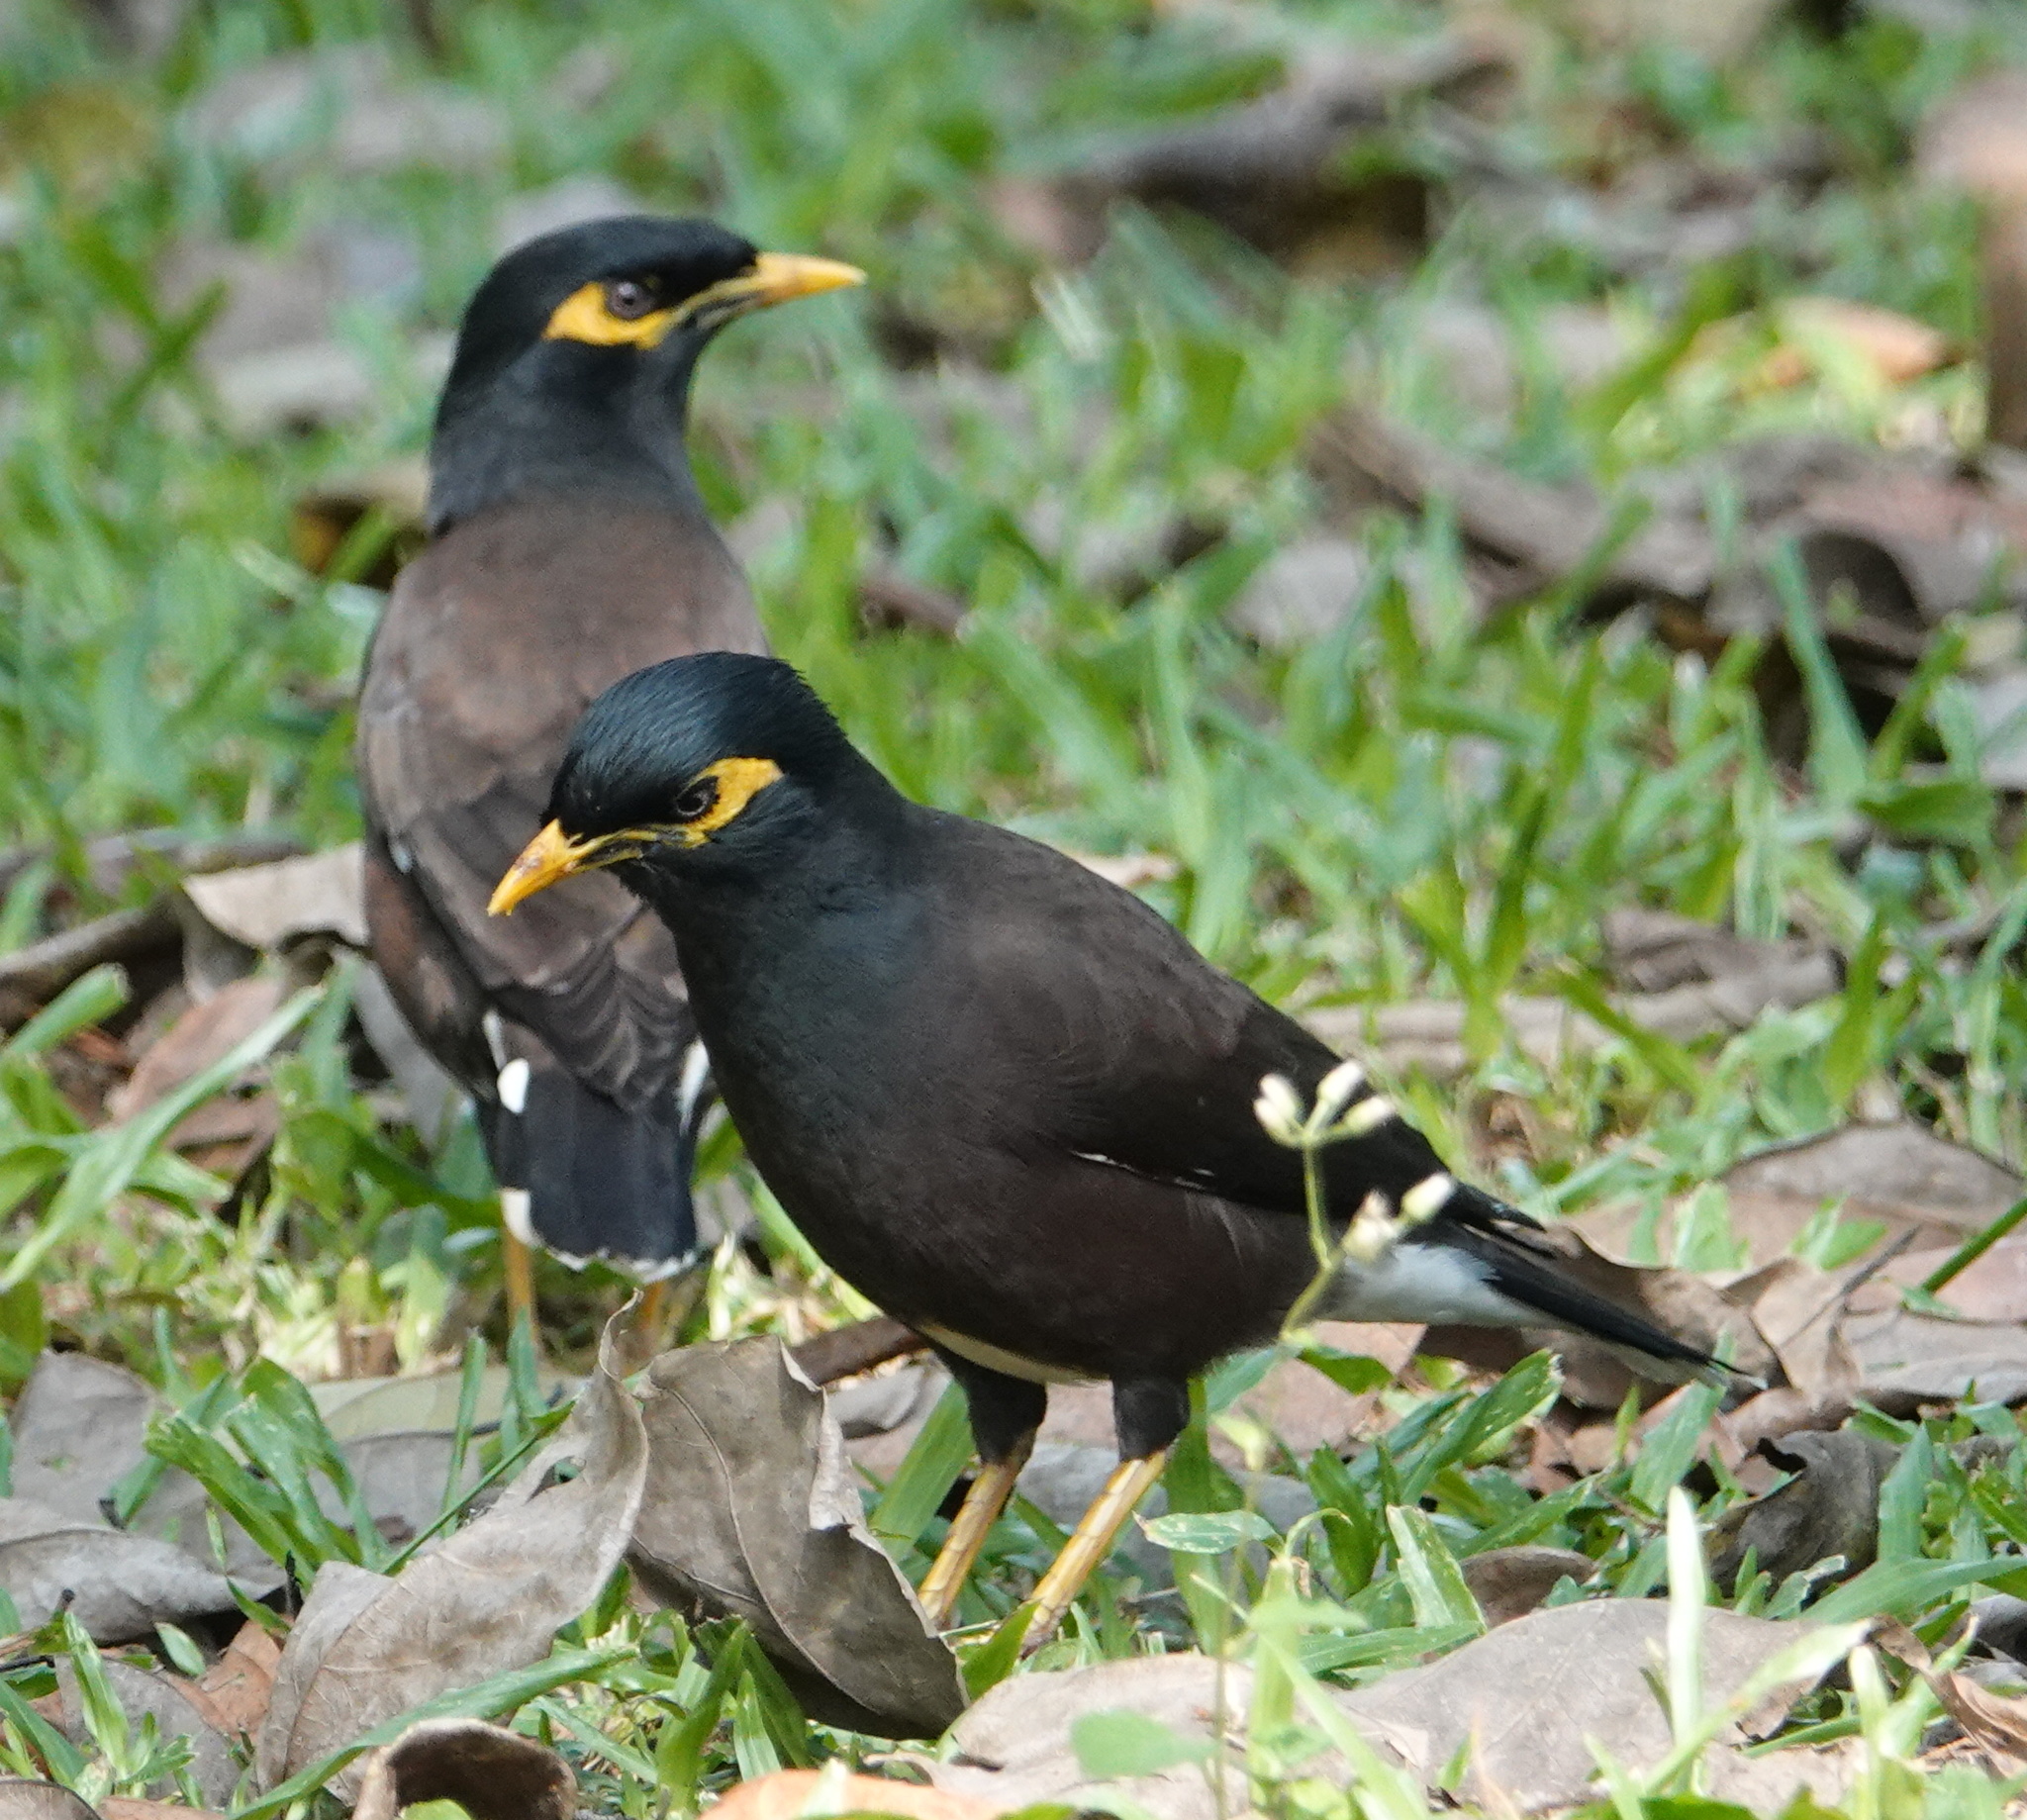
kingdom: Animalia
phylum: Chordata
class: Aves
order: Passeriformes
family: Sturnidae
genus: Acridotheres
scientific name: Acridotheres tristis
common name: Common myna
